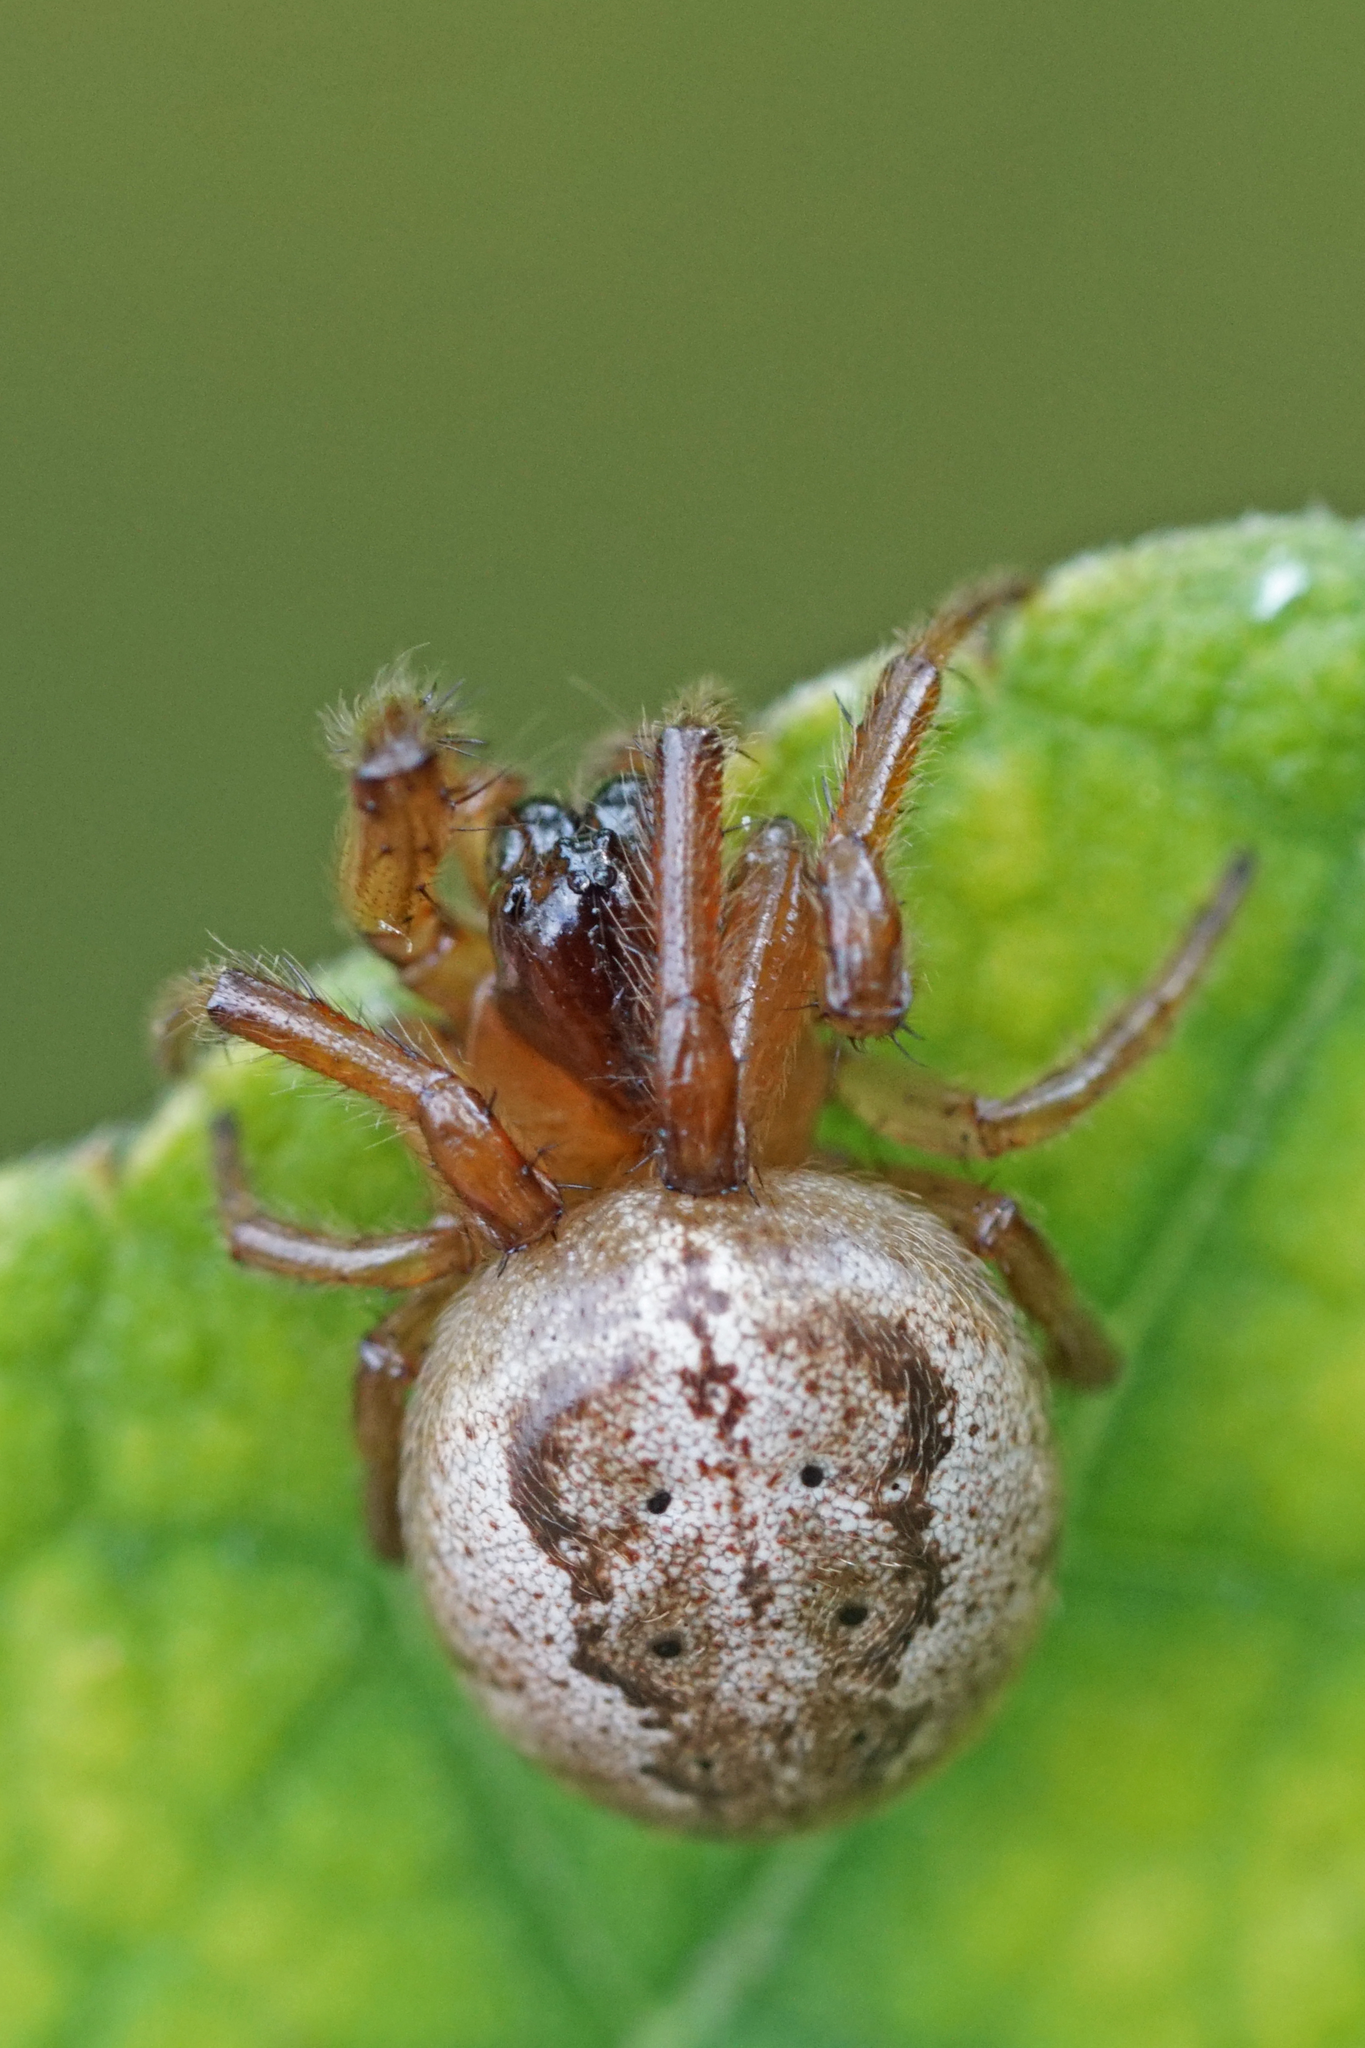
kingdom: Animalia
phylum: Arthropoda
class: Arachnida
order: Araneae
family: Araneidae
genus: Metazygia
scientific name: Metazygia wittfeldae
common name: Orb weavers
